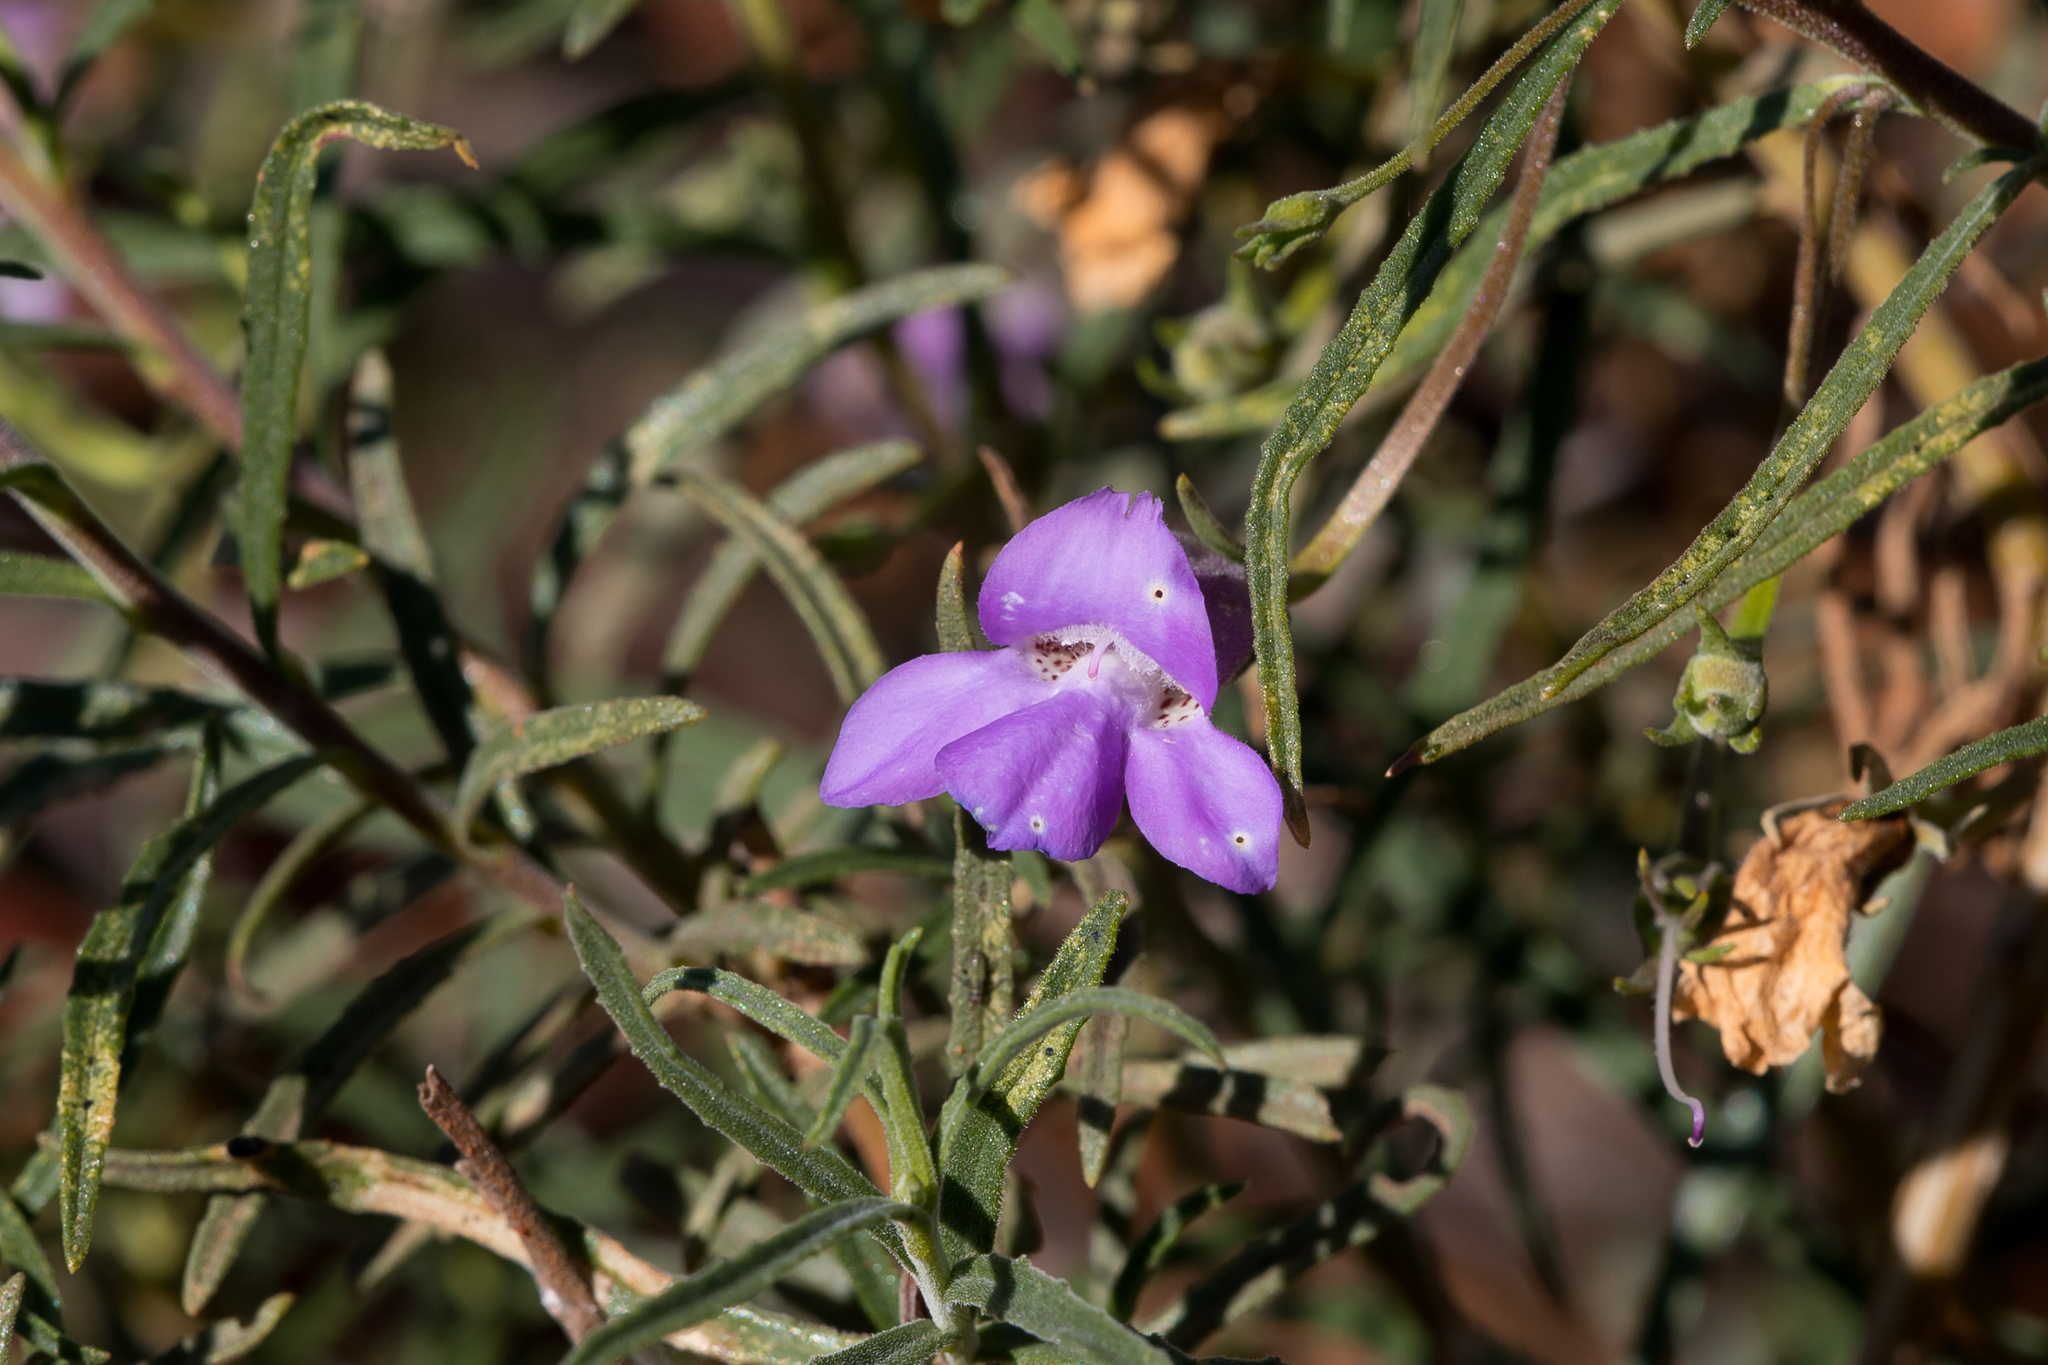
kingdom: Plantae
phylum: Tracheophyta
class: Magnoliopsida
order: Lamiales
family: Scrophulariaceae
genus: Eremophila
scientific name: Eremophila gilesii
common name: Desert fuchsia
